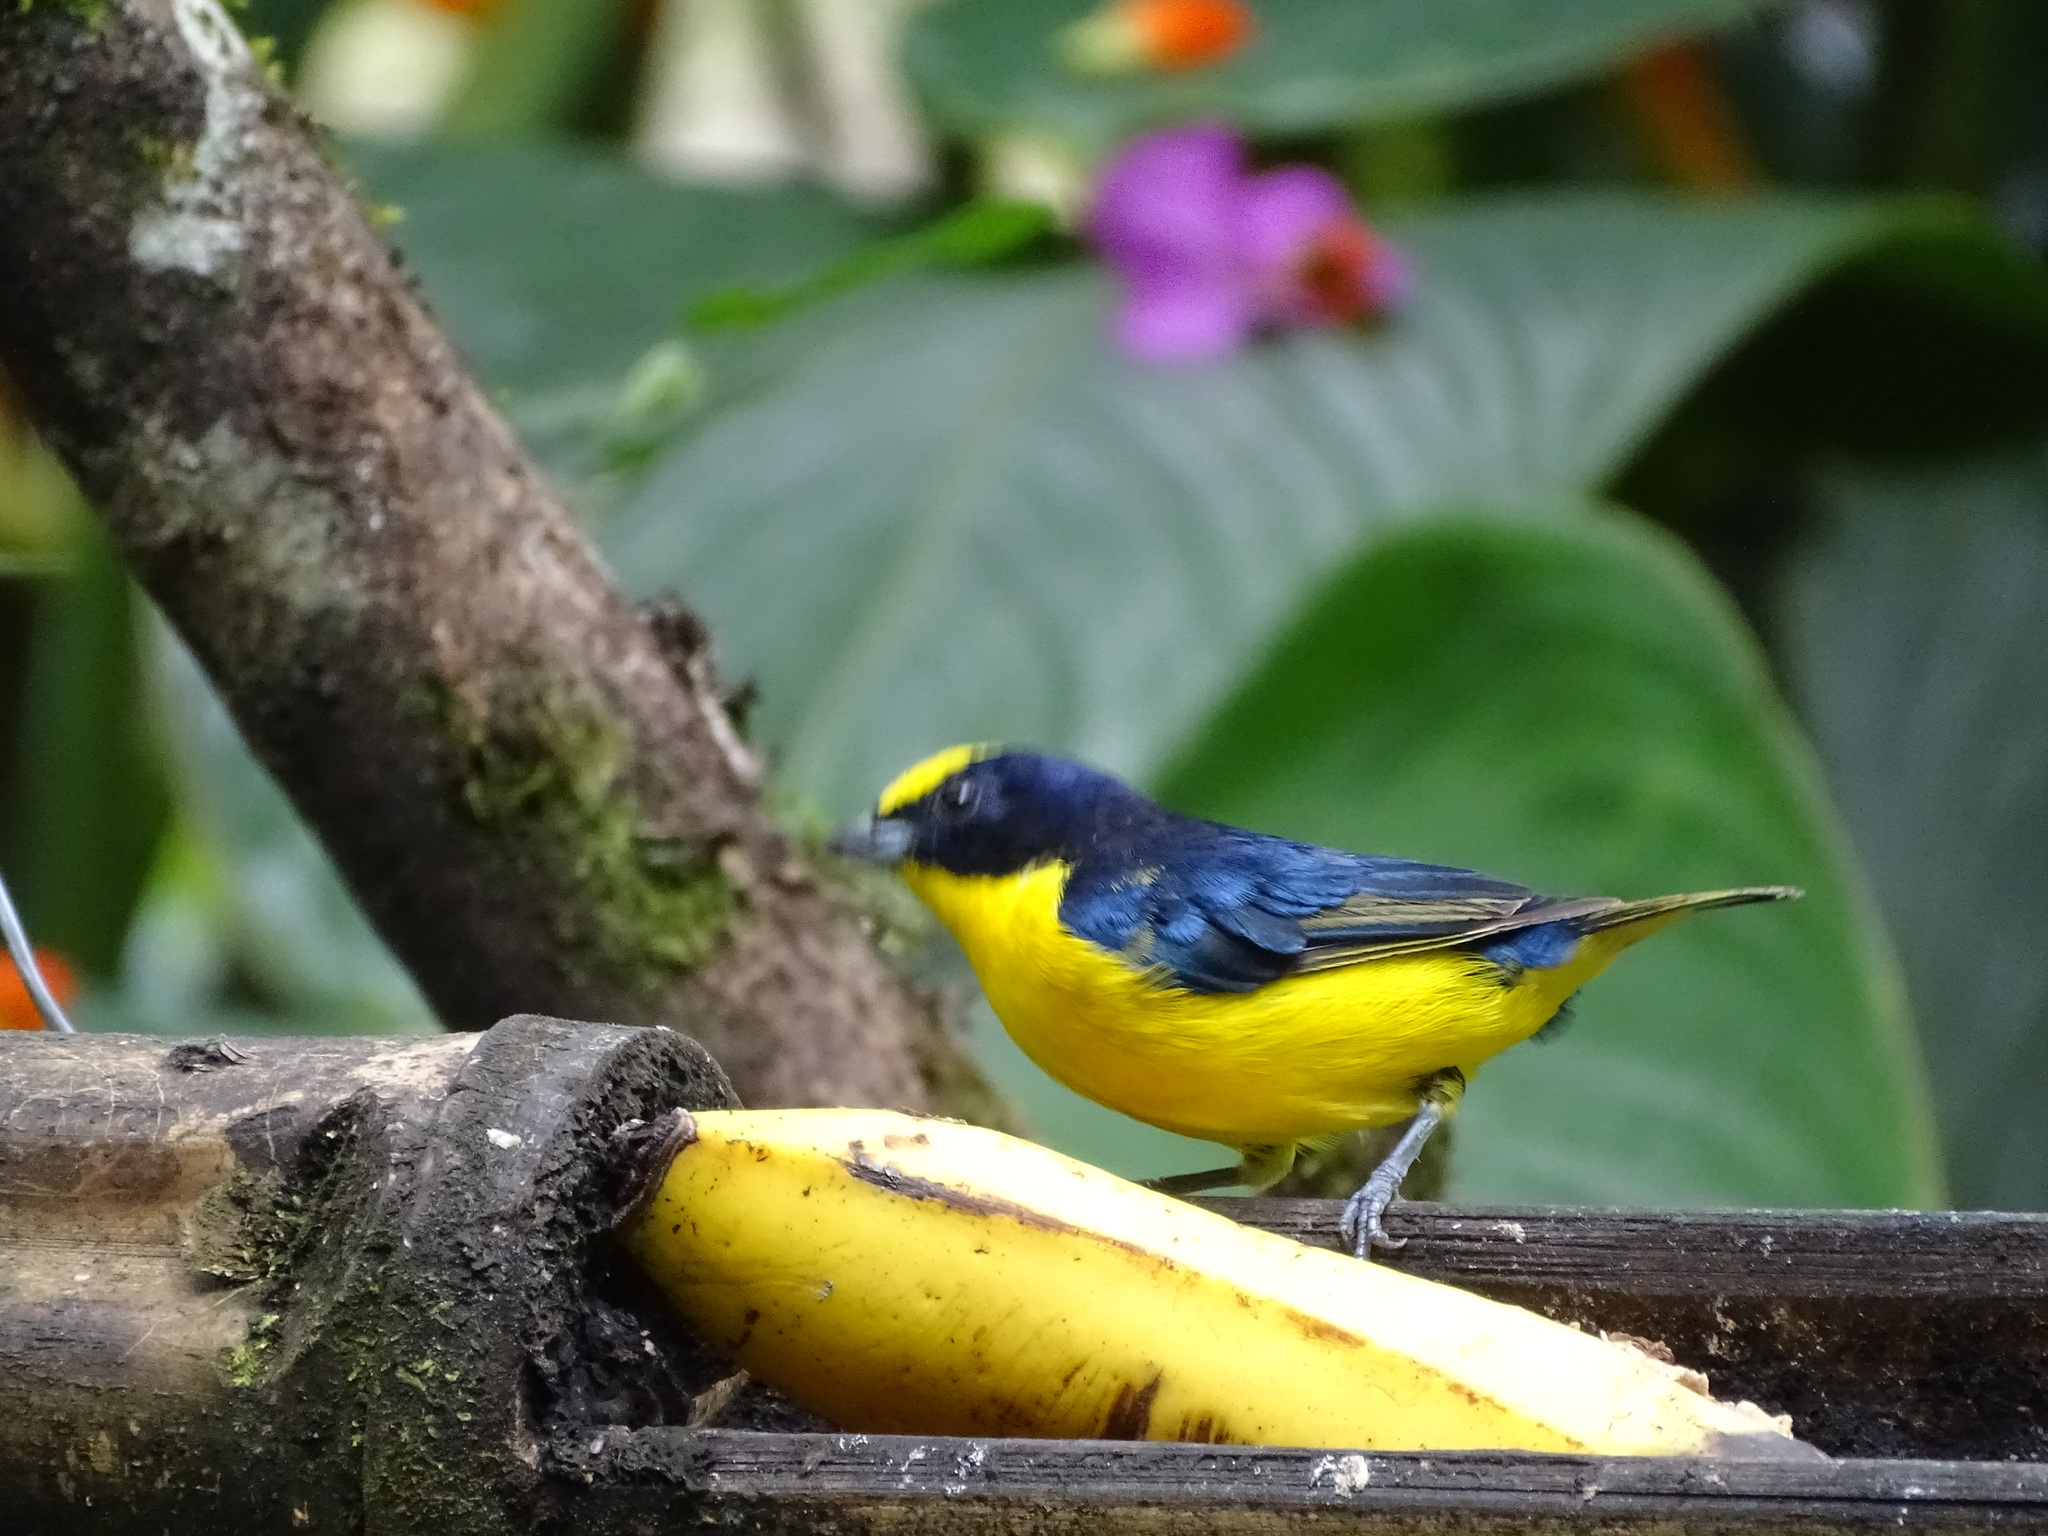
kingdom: Animalia
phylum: Chordata
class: Aves
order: Passeriformes
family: Fringillidae
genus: Euphonia
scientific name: Euphonia laniirostris
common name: Thick-billed euphonia
